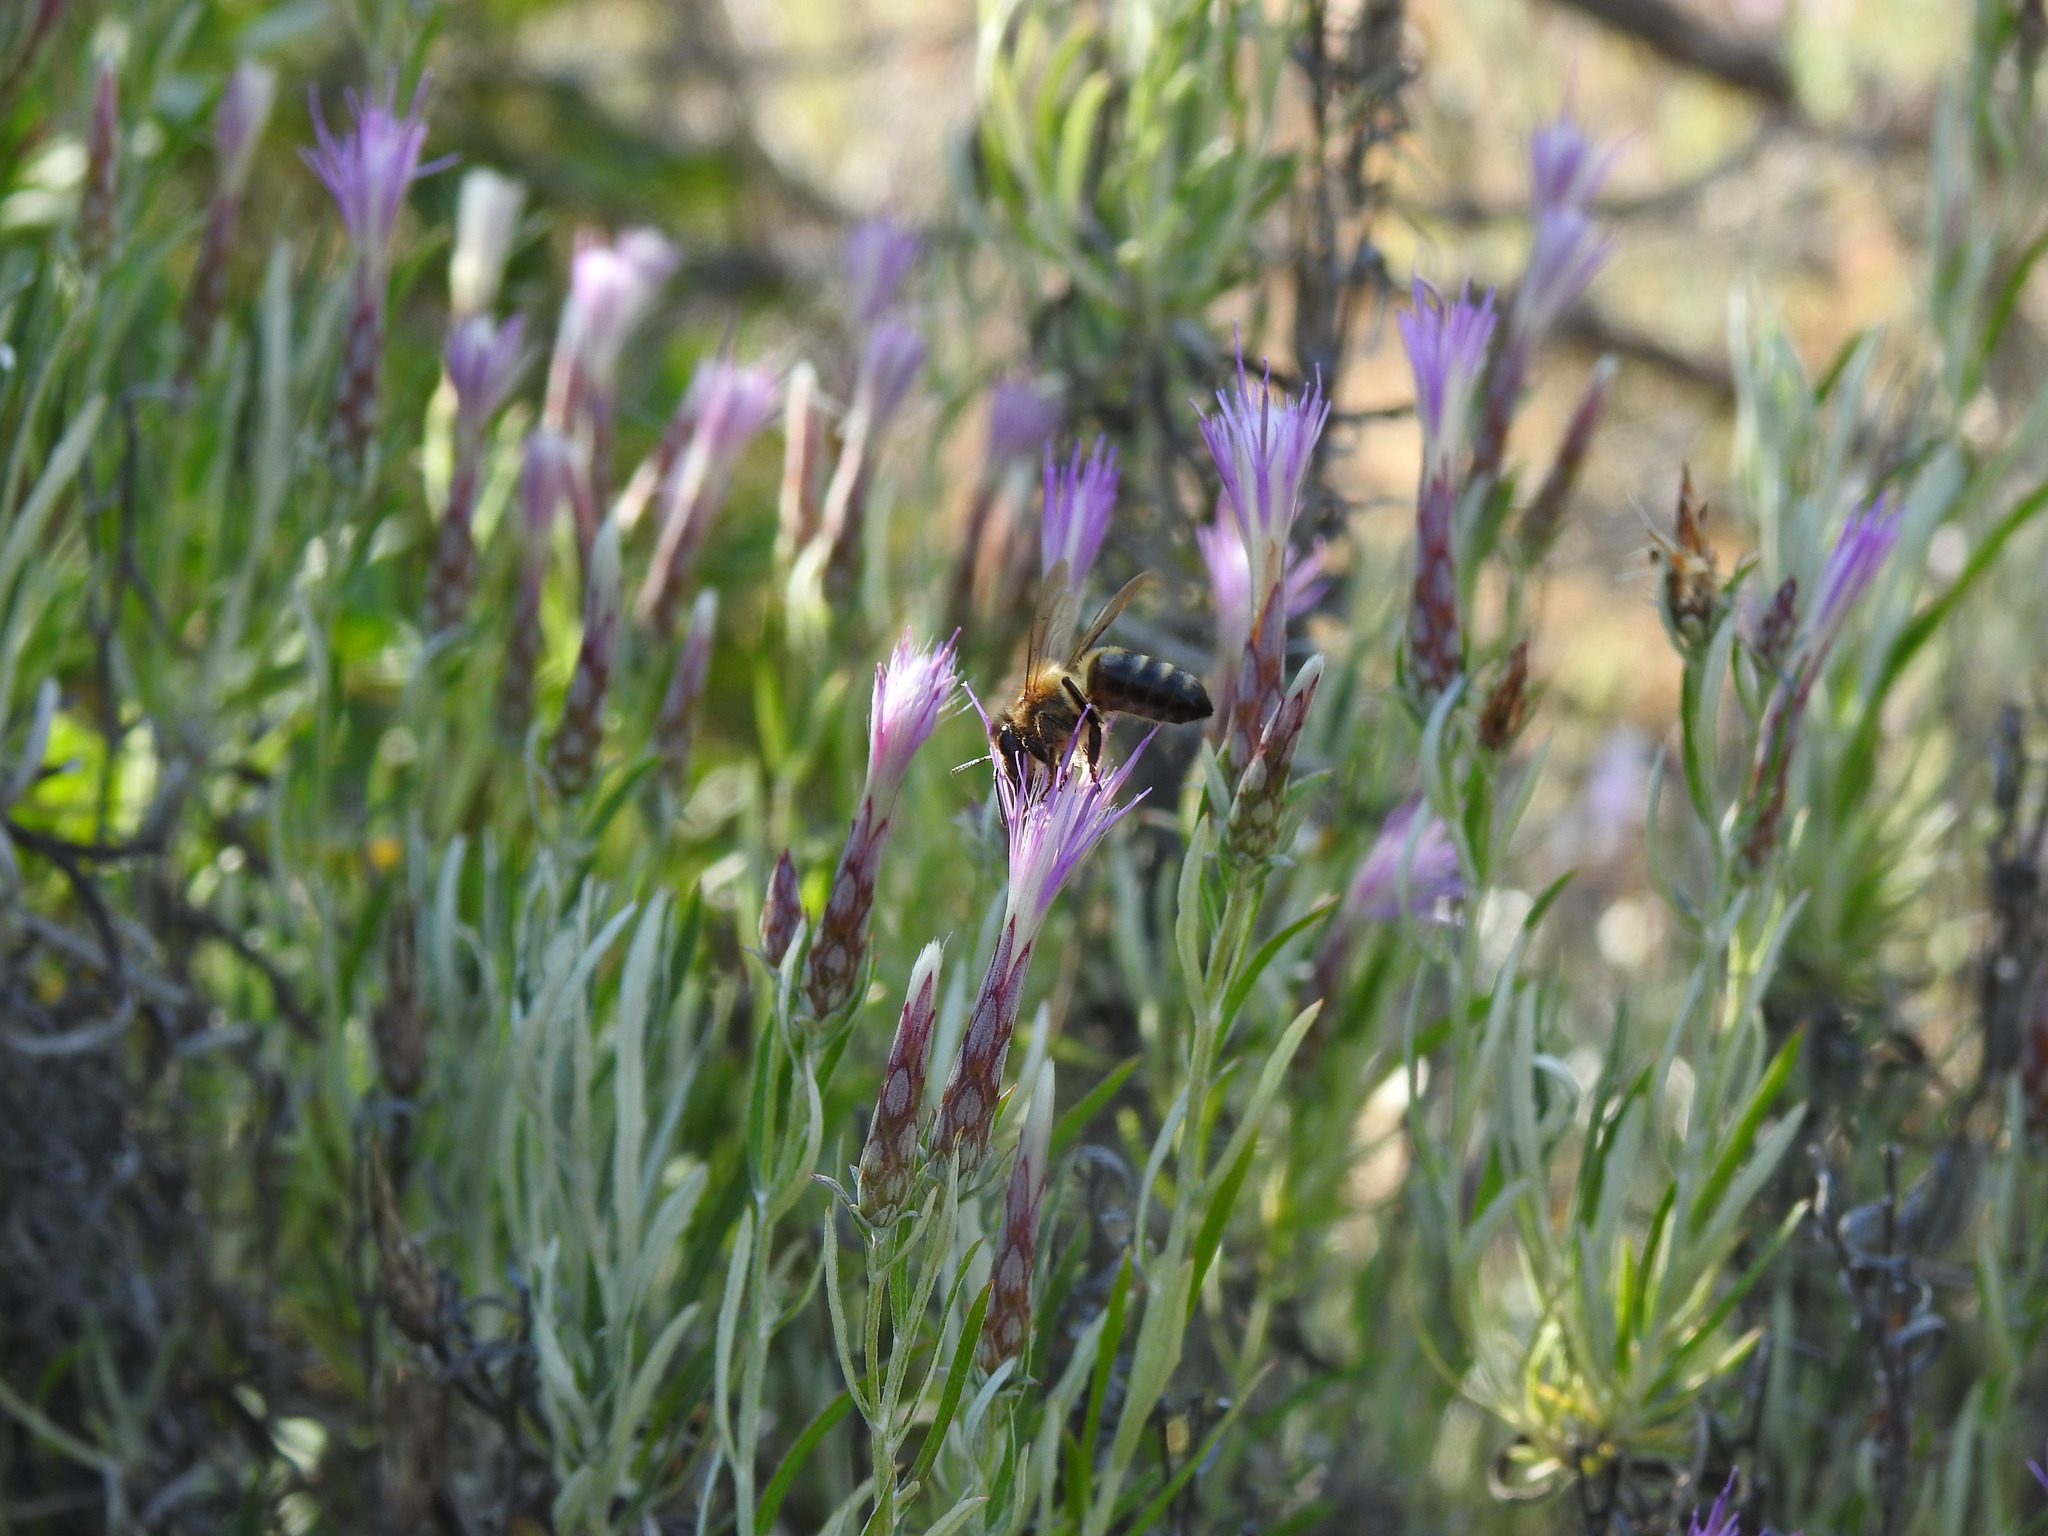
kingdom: Animalia
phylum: Arthropoda
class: Insecta
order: Hymenoptera
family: Apidae
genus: Apis
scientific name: Apis mellifera
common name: Honey bee
